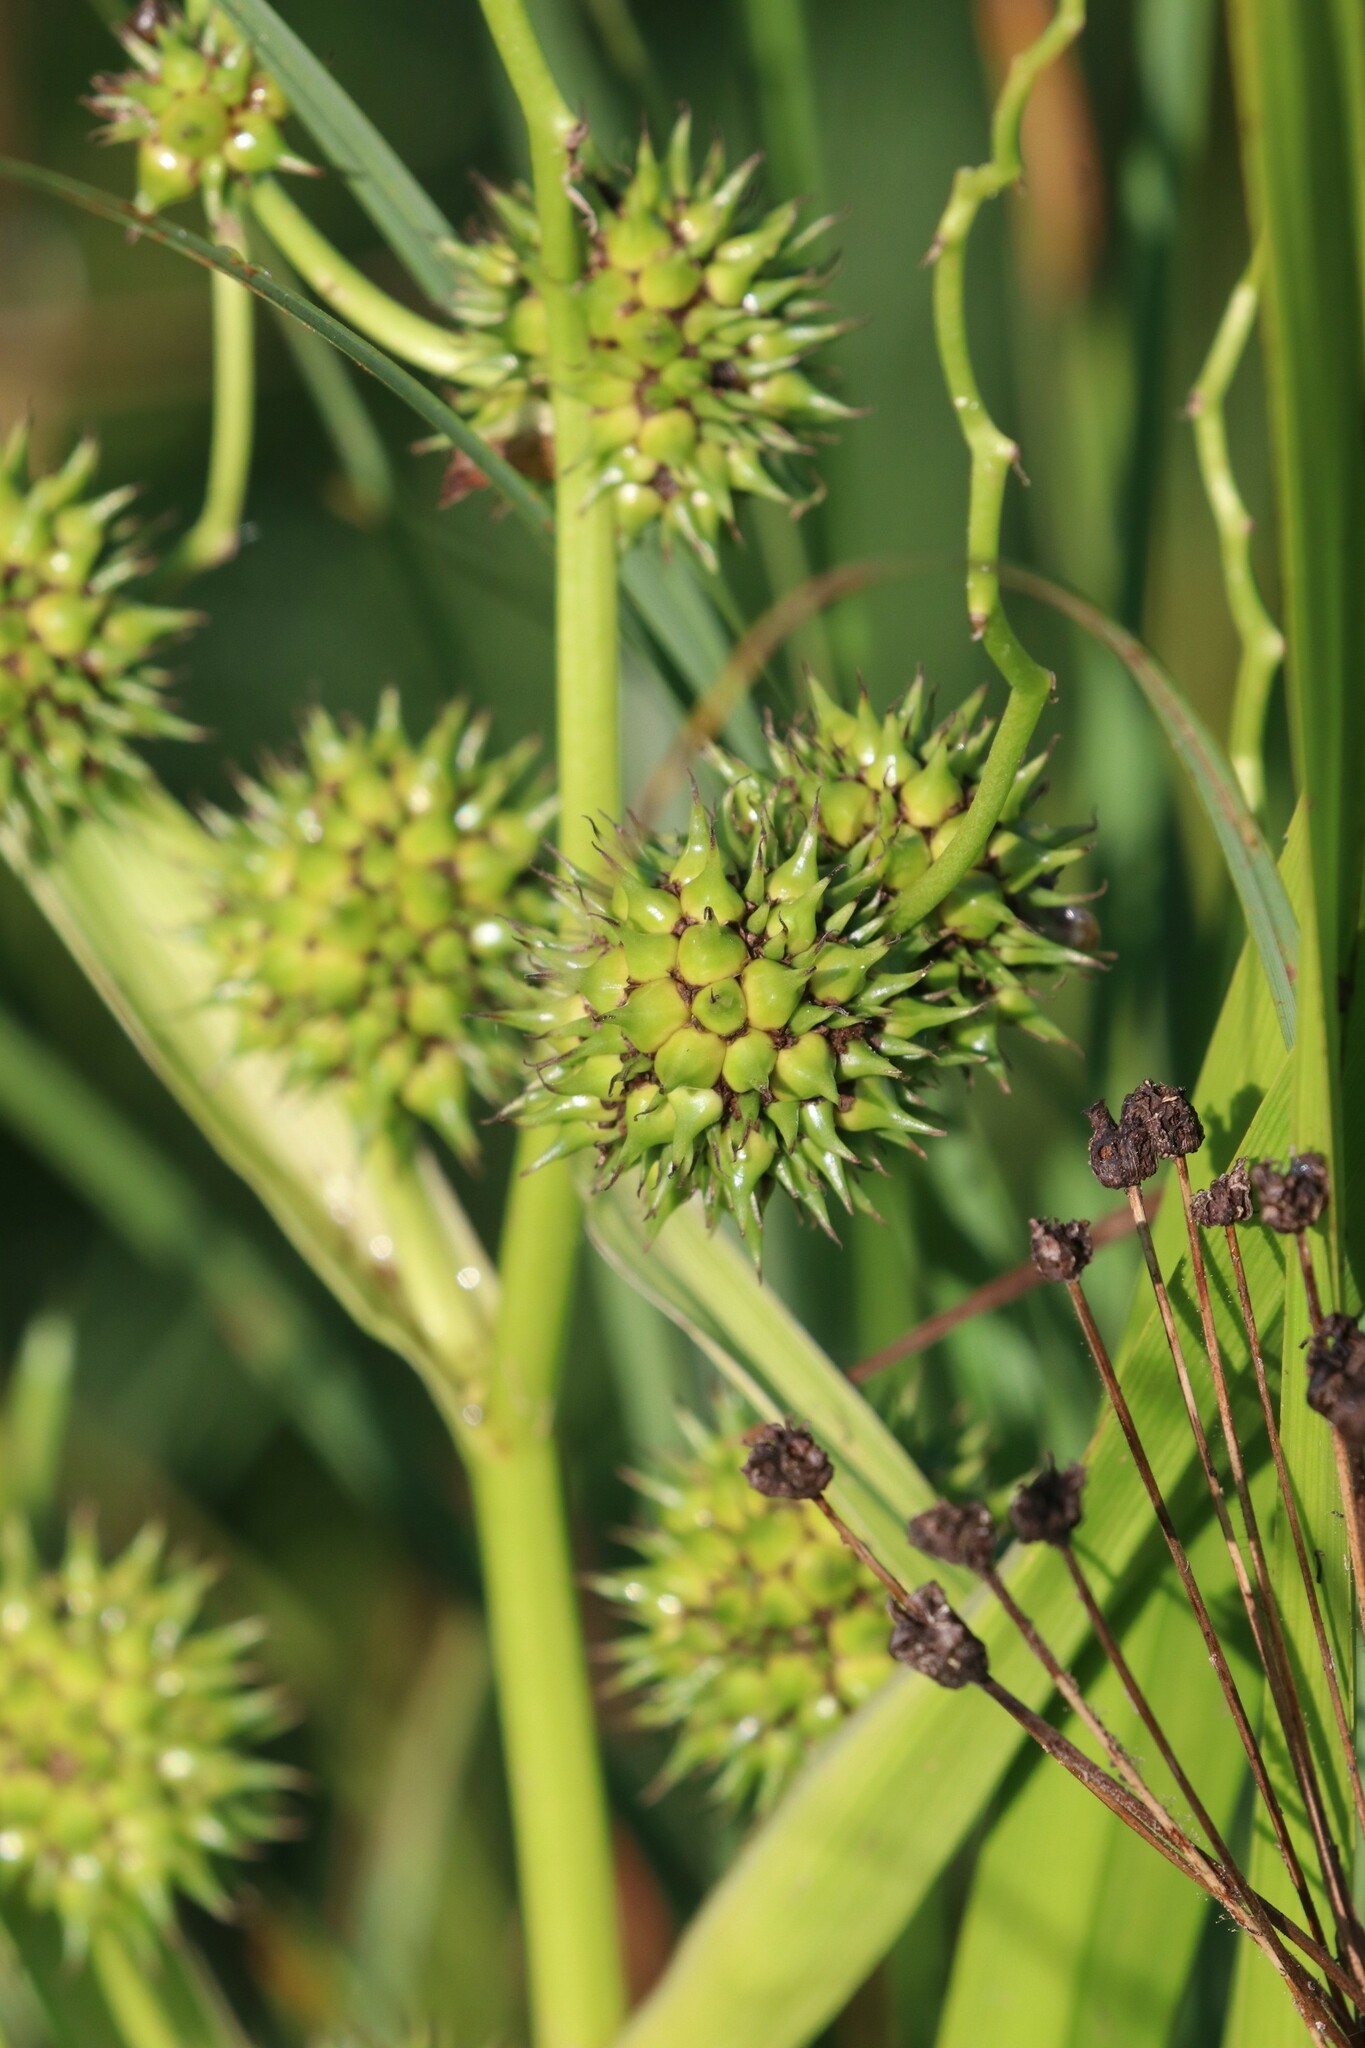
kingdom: Plantae
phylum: Tracheophyta
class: Liliopsida
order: Poales
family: Typhaceae
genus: Sparganium
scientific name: Sparganium erectum
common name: Branched bur-reed
